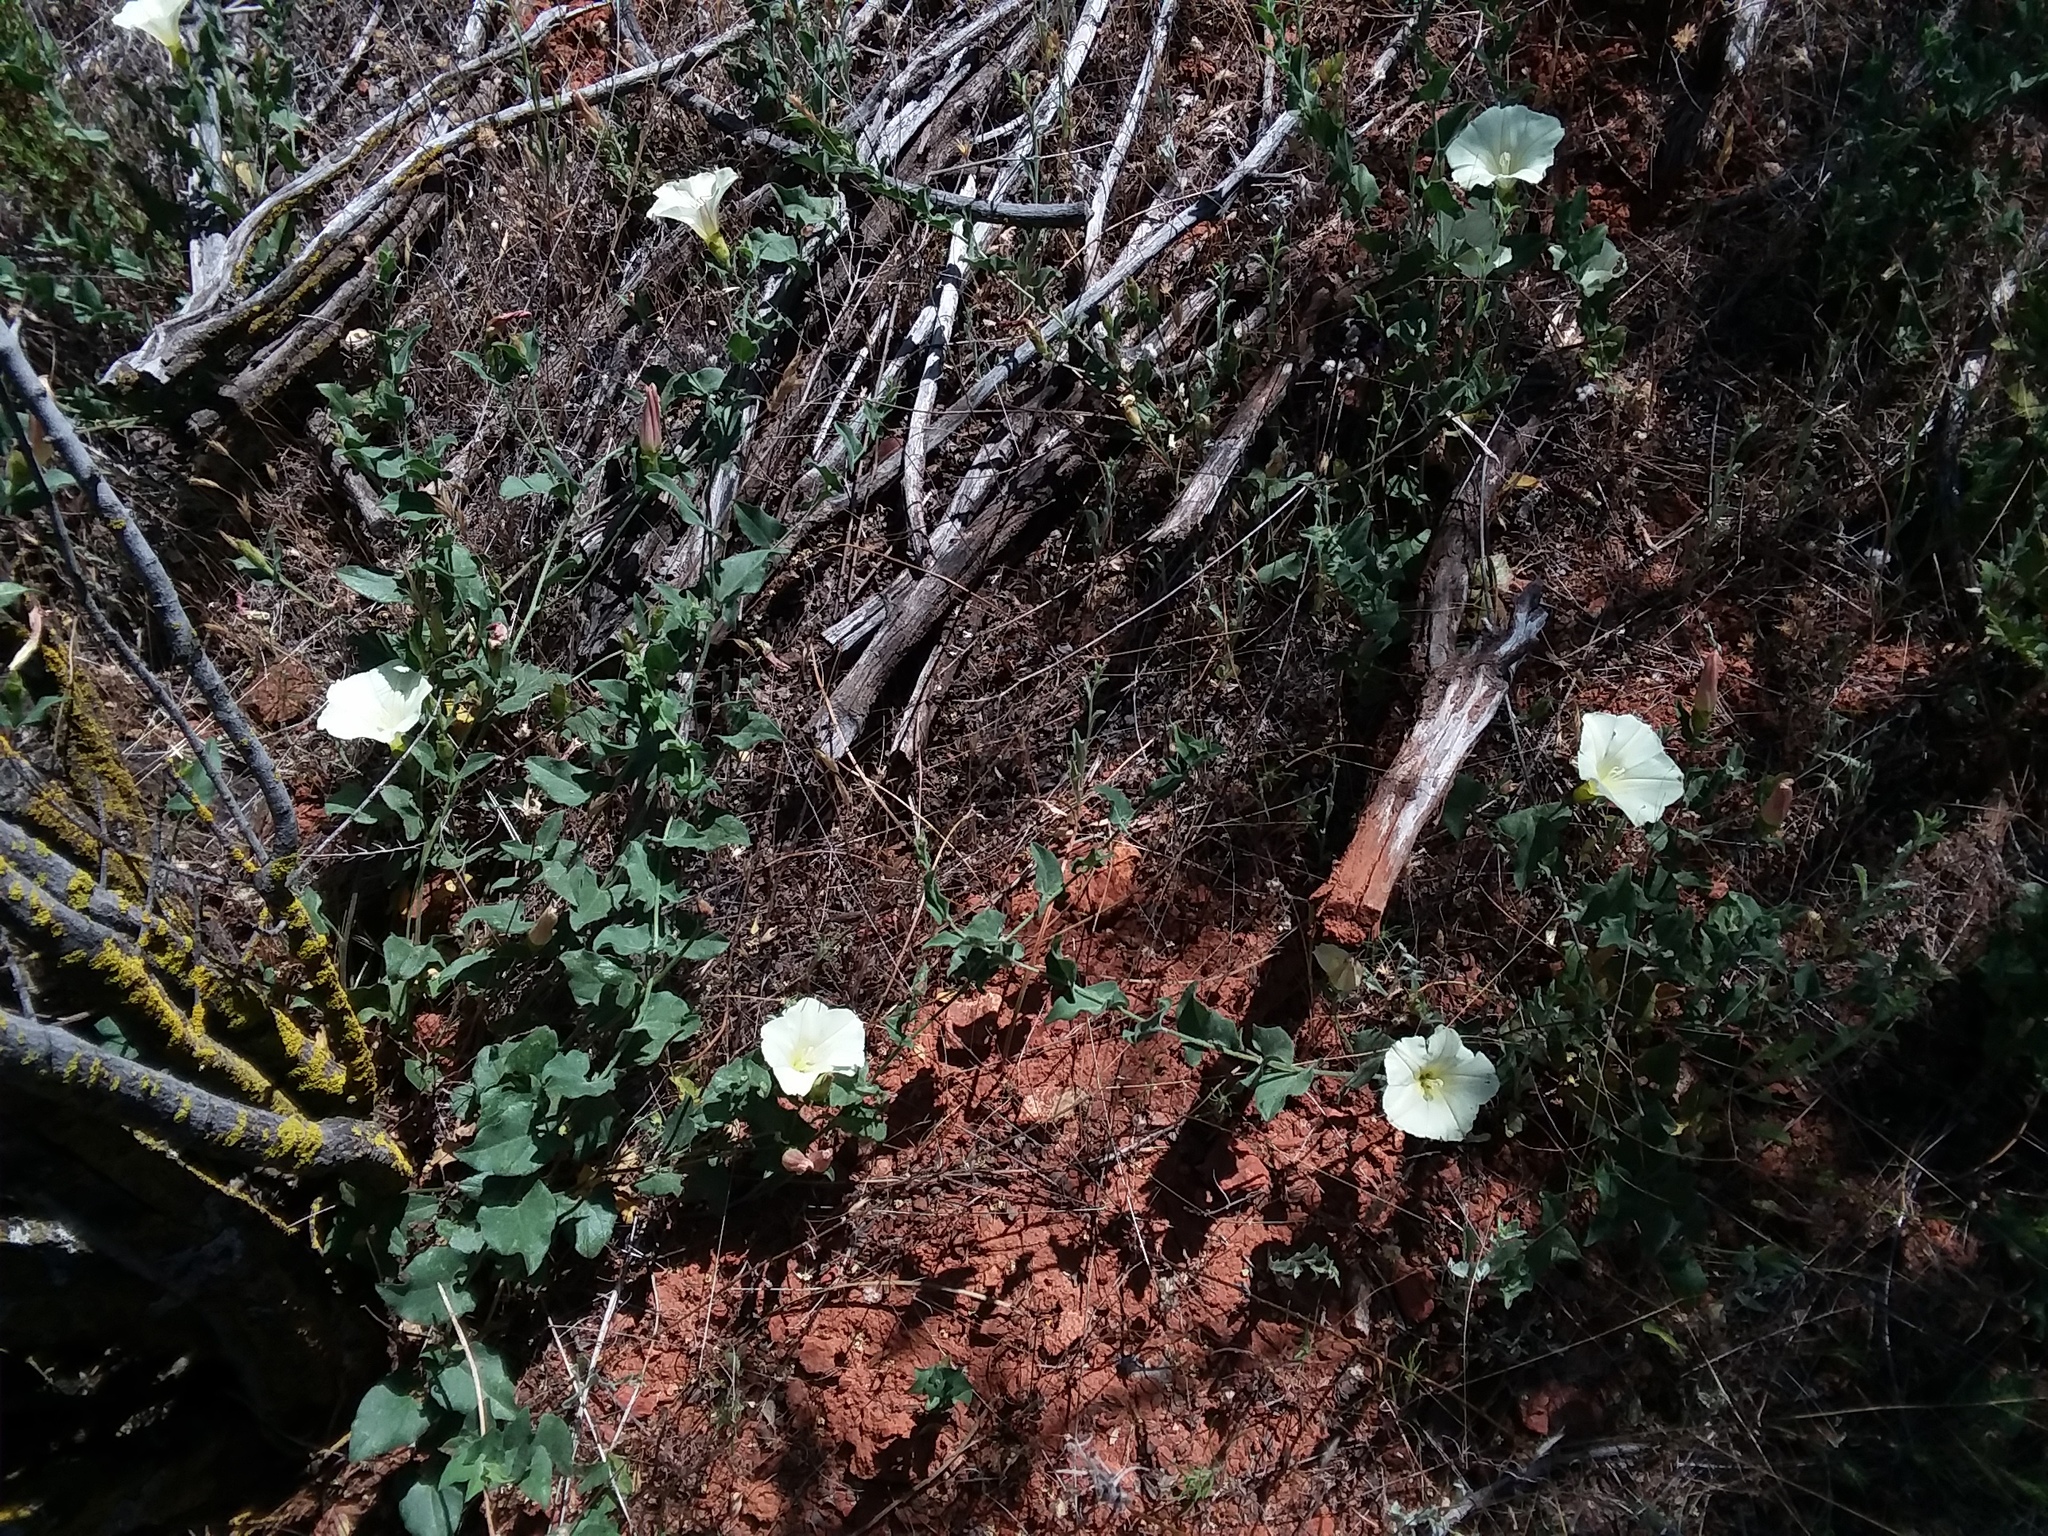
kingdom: Plantae
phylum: Tracheophyta
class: Magnoliopsida
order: Solanales
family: Convolvulaceae
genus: Calystegia
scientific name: Calystegia occidentalis
